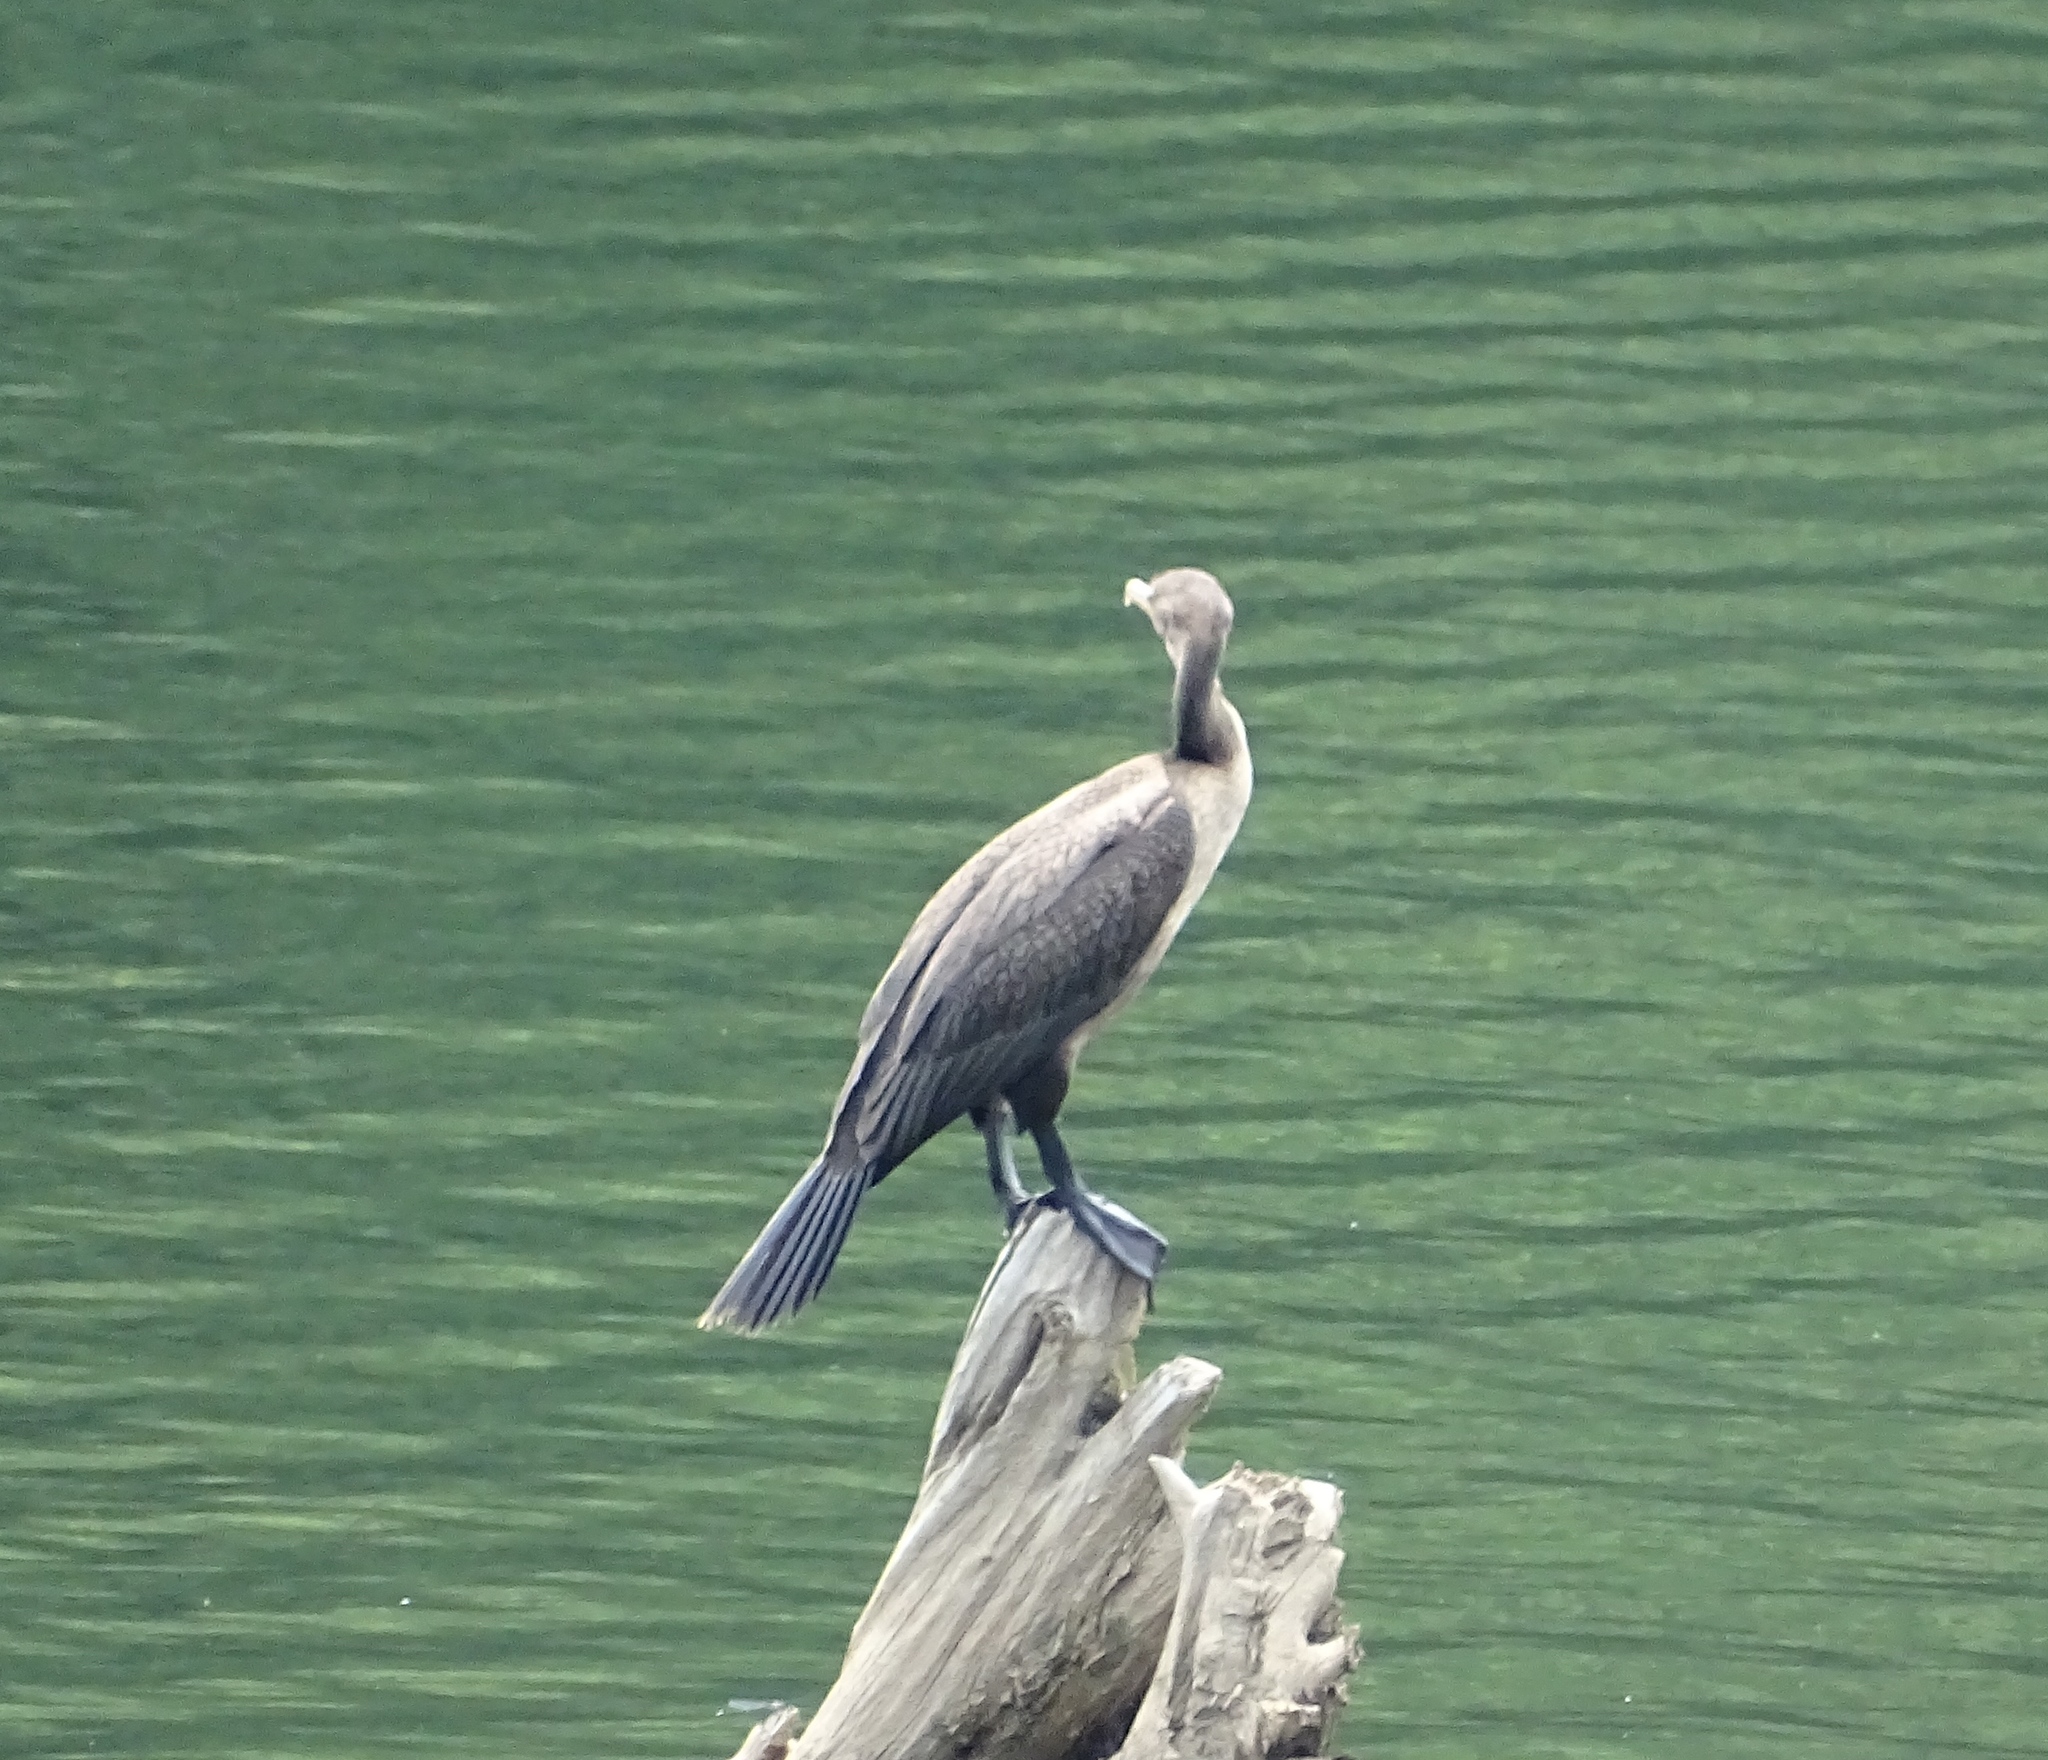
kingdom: Animalia
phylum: Chordata
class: Aves
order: Suliformes
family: Phalacrocoracidae
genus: Phalacrocorax
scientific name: Phalacrocorax auritus
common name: Double-crested cormorant
